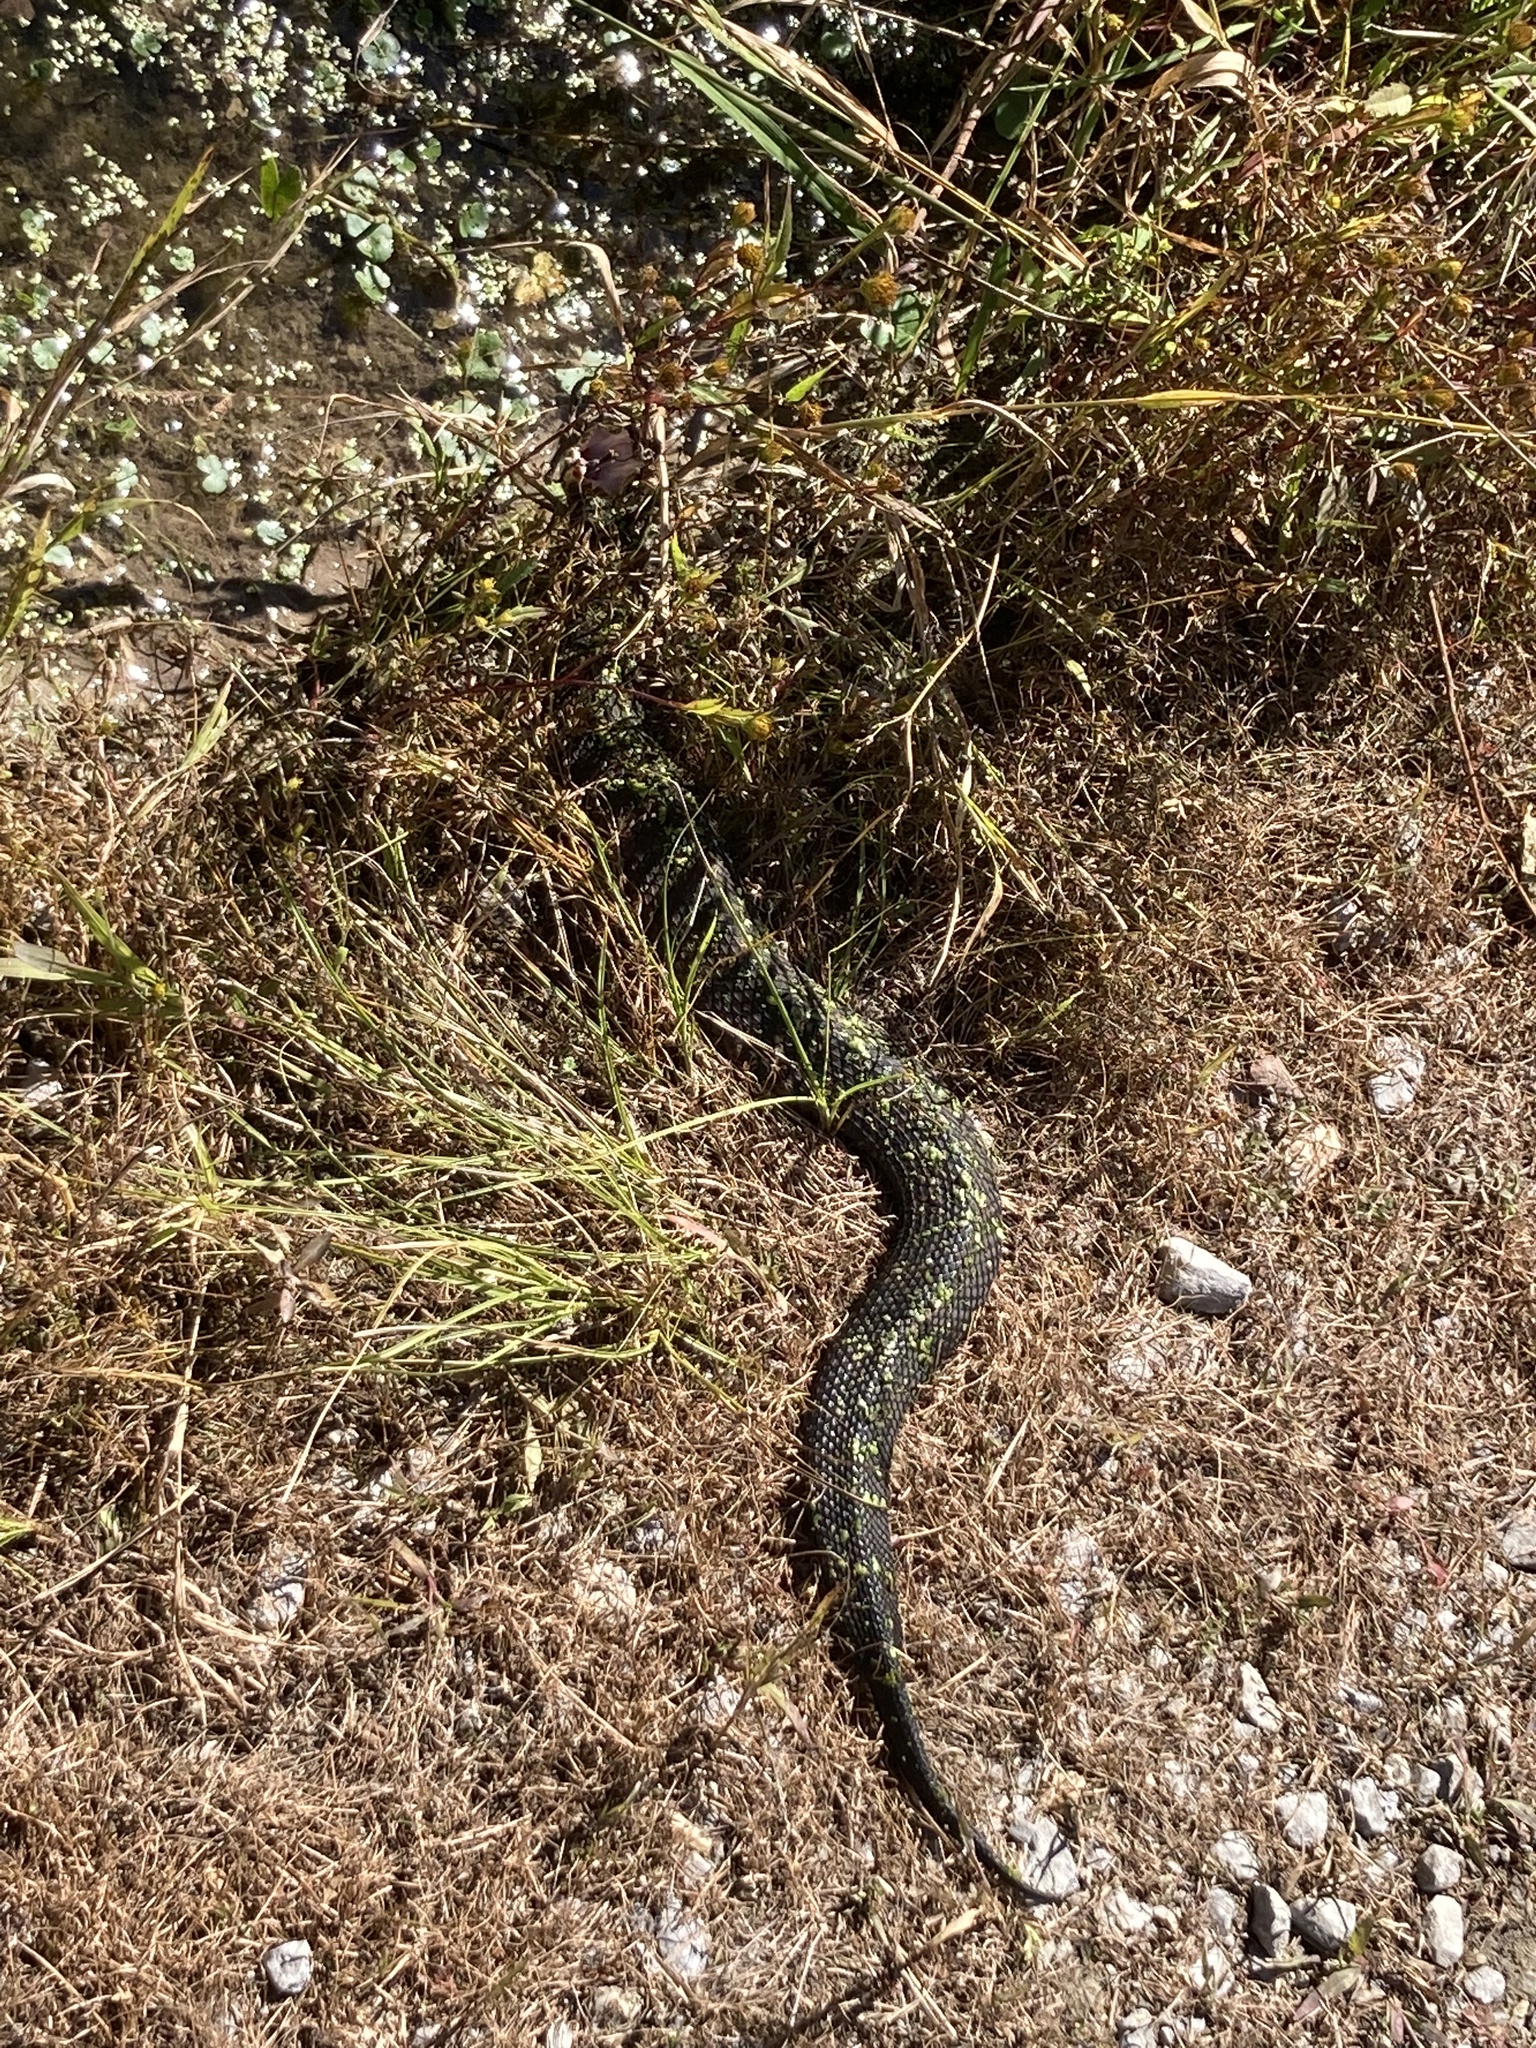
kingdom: Animalia
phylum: Chordata
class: Squamata
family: Viperidae
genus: Agkistrodon
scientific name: Agkistrodon piscivorus
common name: Cottonmouth
